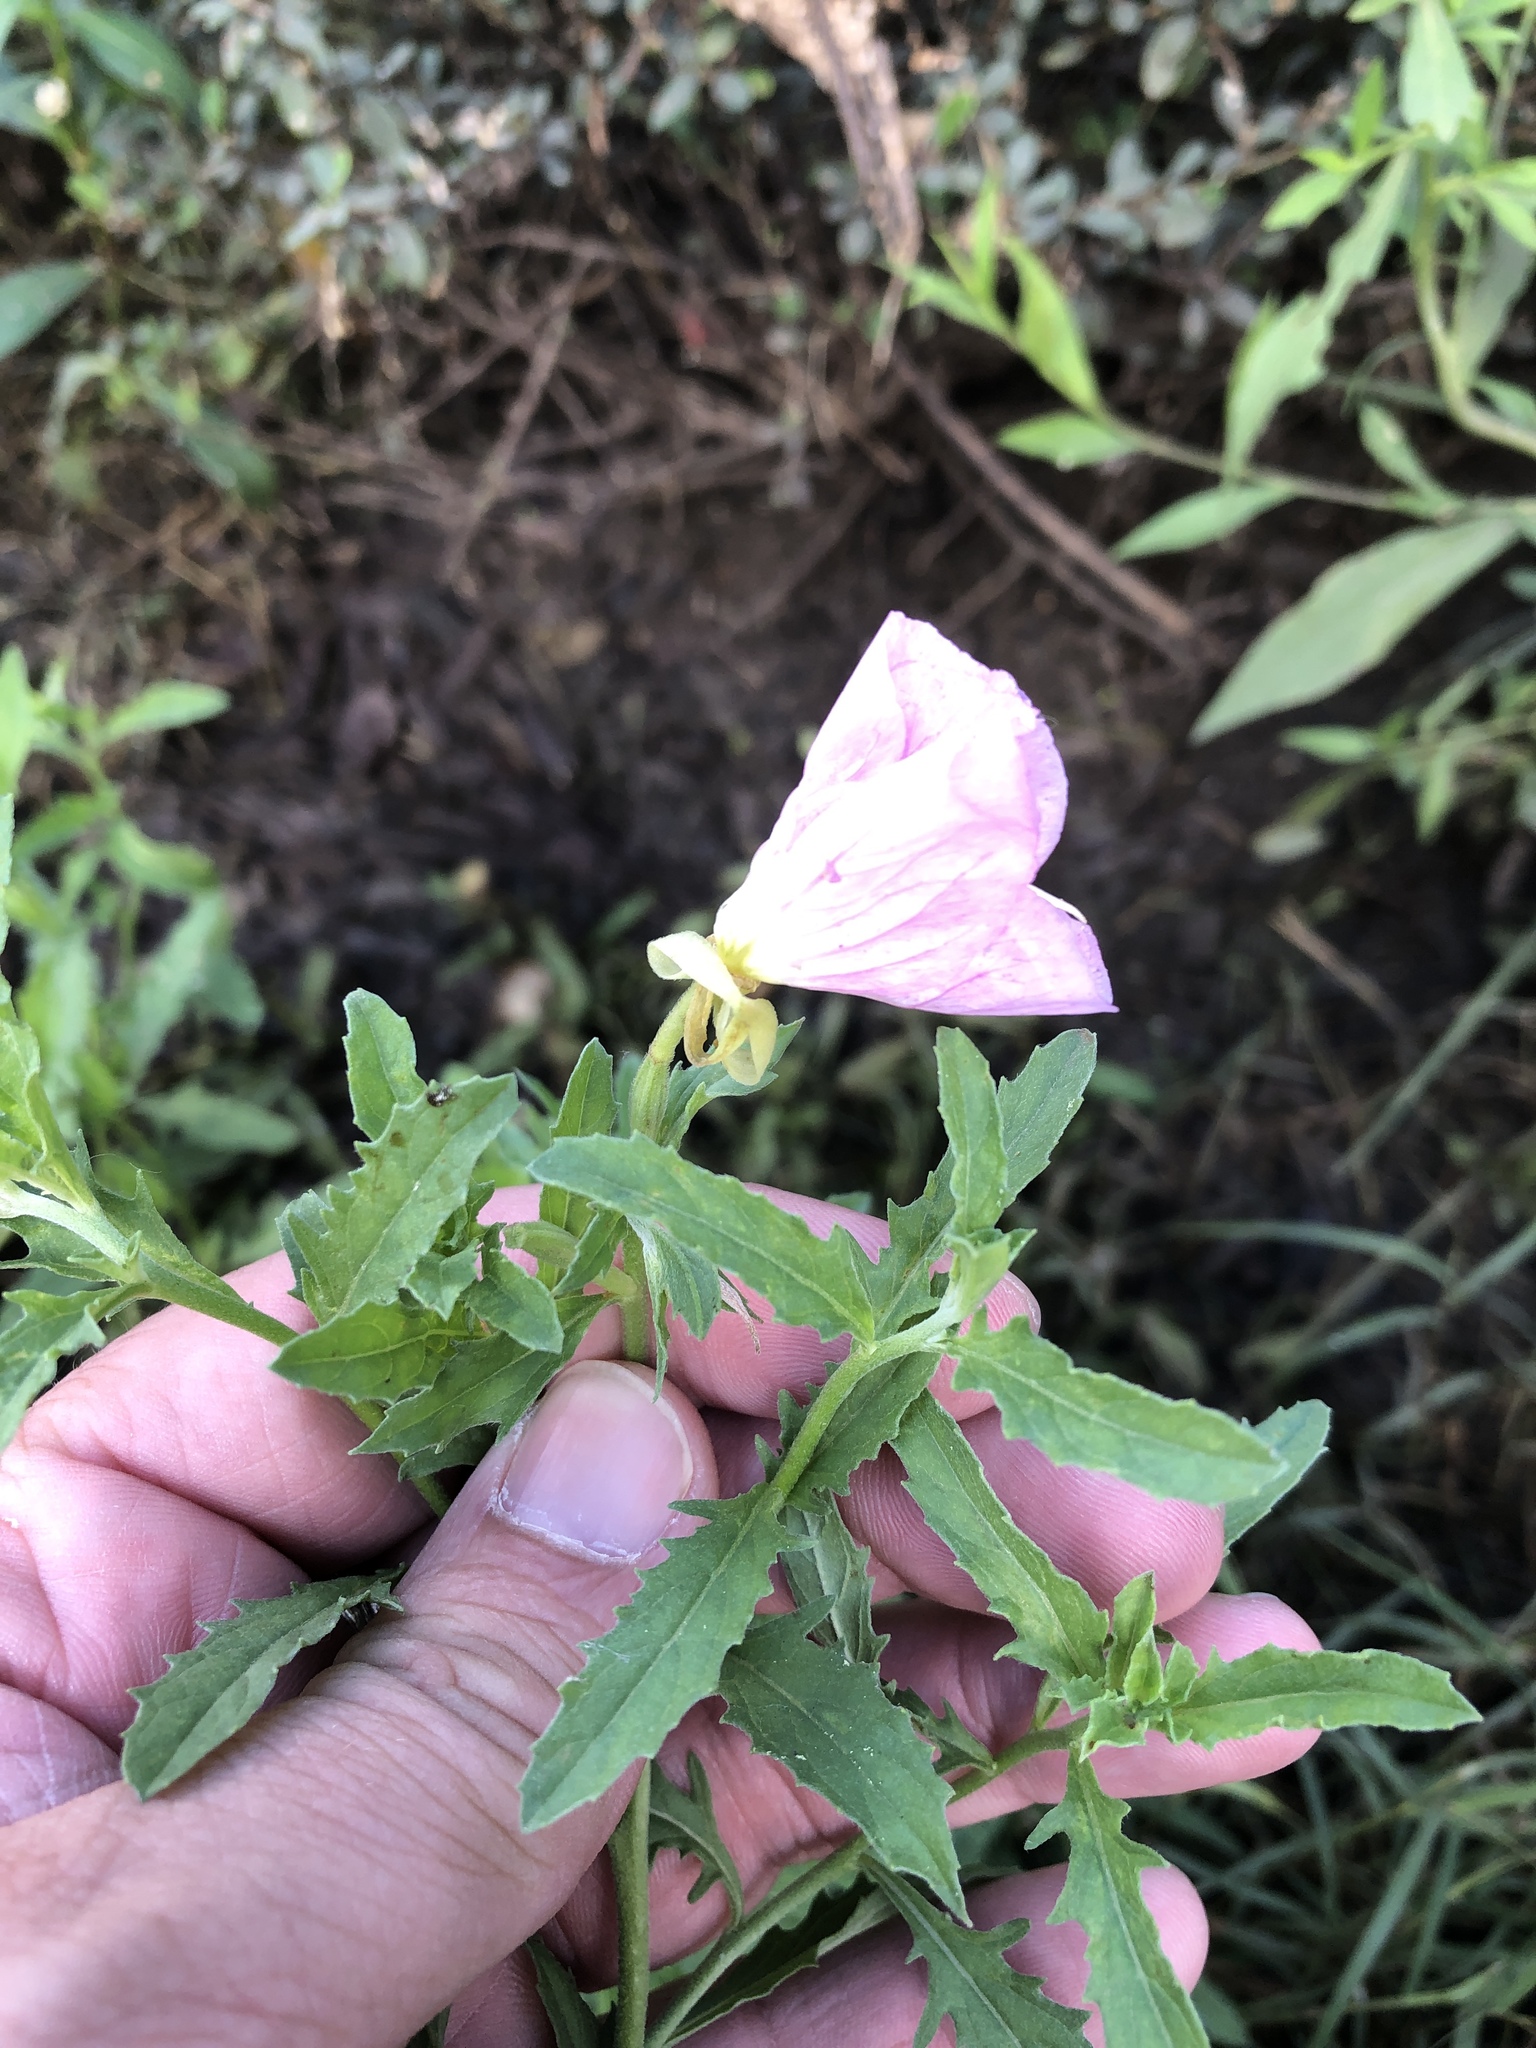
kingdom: Plantae
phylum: Tracheophyta
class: Magnoliopsida
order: Myrtales
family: Onagraceae
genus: Oenothera
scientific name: Oenothera speciosa
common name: White evening-primrose
